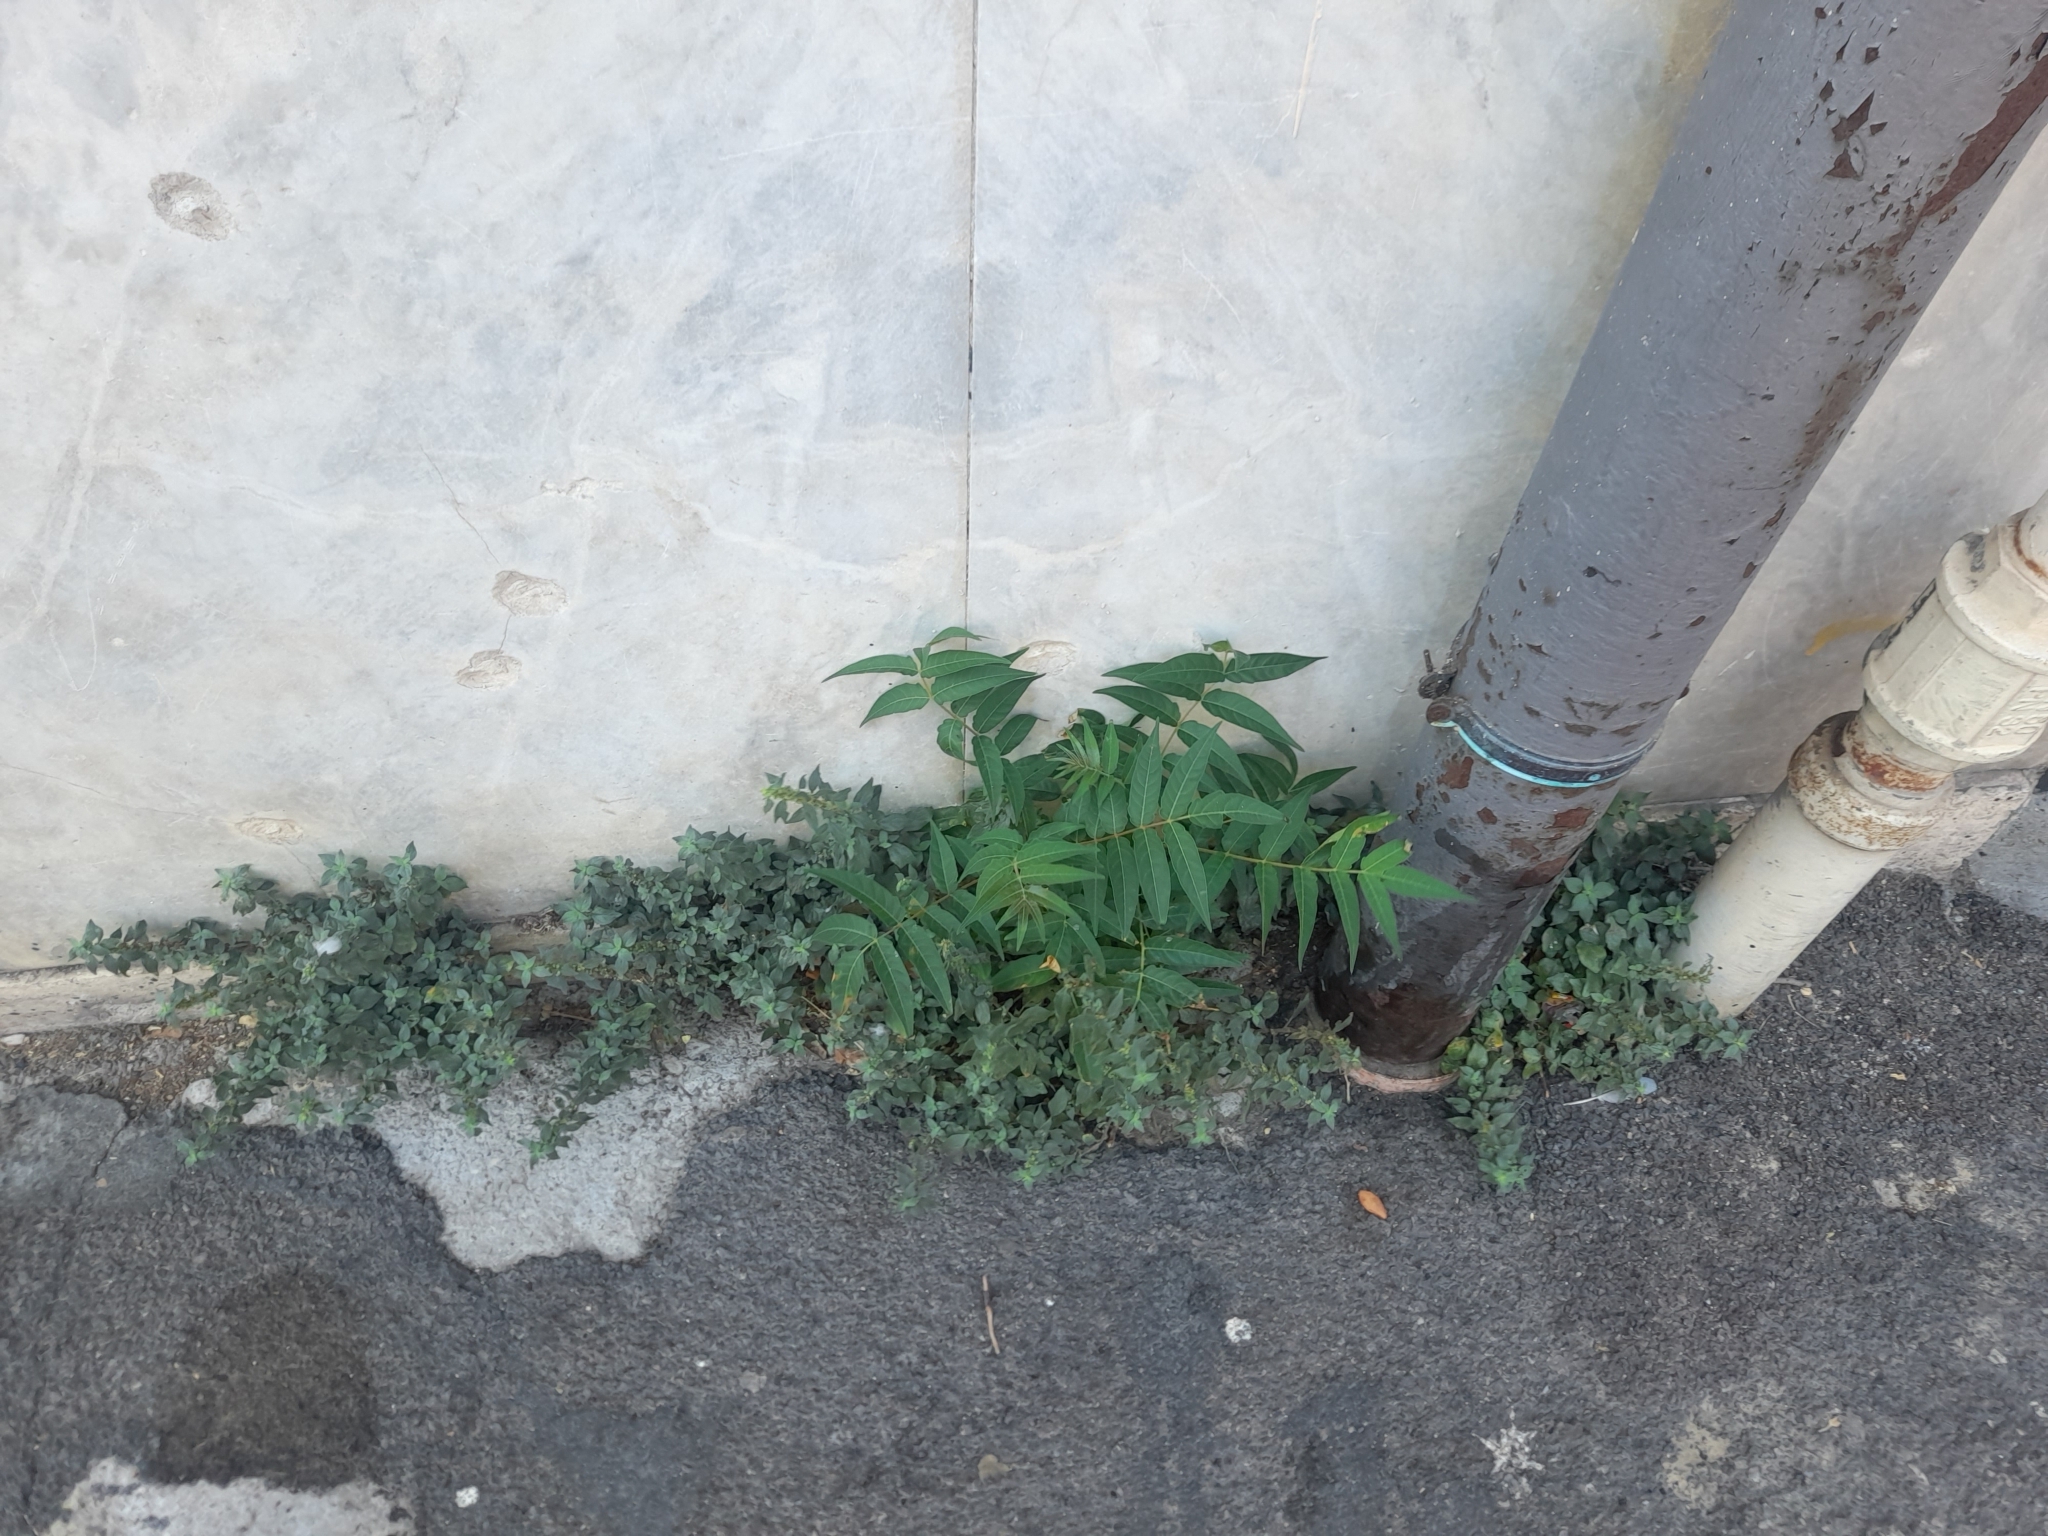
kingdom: Plantae
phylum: Tracheophyta
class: Magnoliopsida
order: Sapindales
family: Simaroubaceae
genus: Ailanthus
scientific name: Ailanthus altissima
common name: Tree-of-heaven
